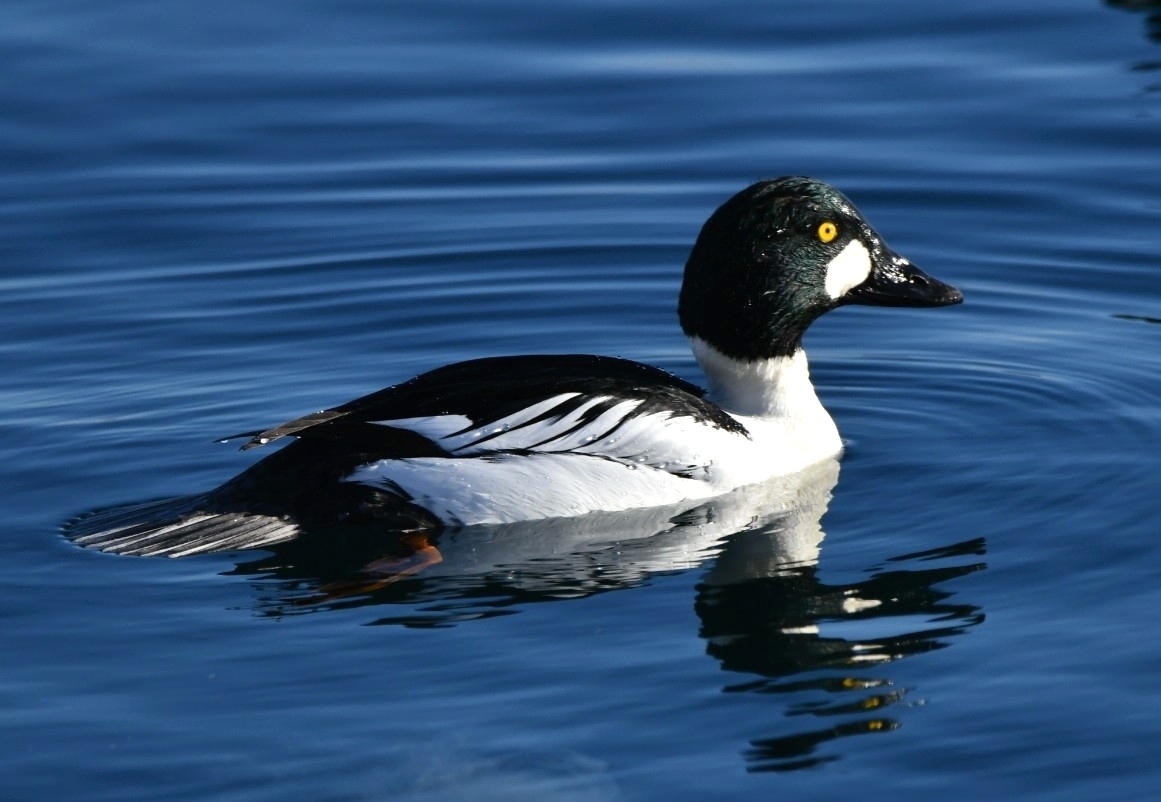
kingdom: Animalia
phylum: Chordata
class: Aves
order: Anseriformes
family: Anatidae
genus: Bucephala
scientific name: Bucephala clangula
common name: Common goldeneye
